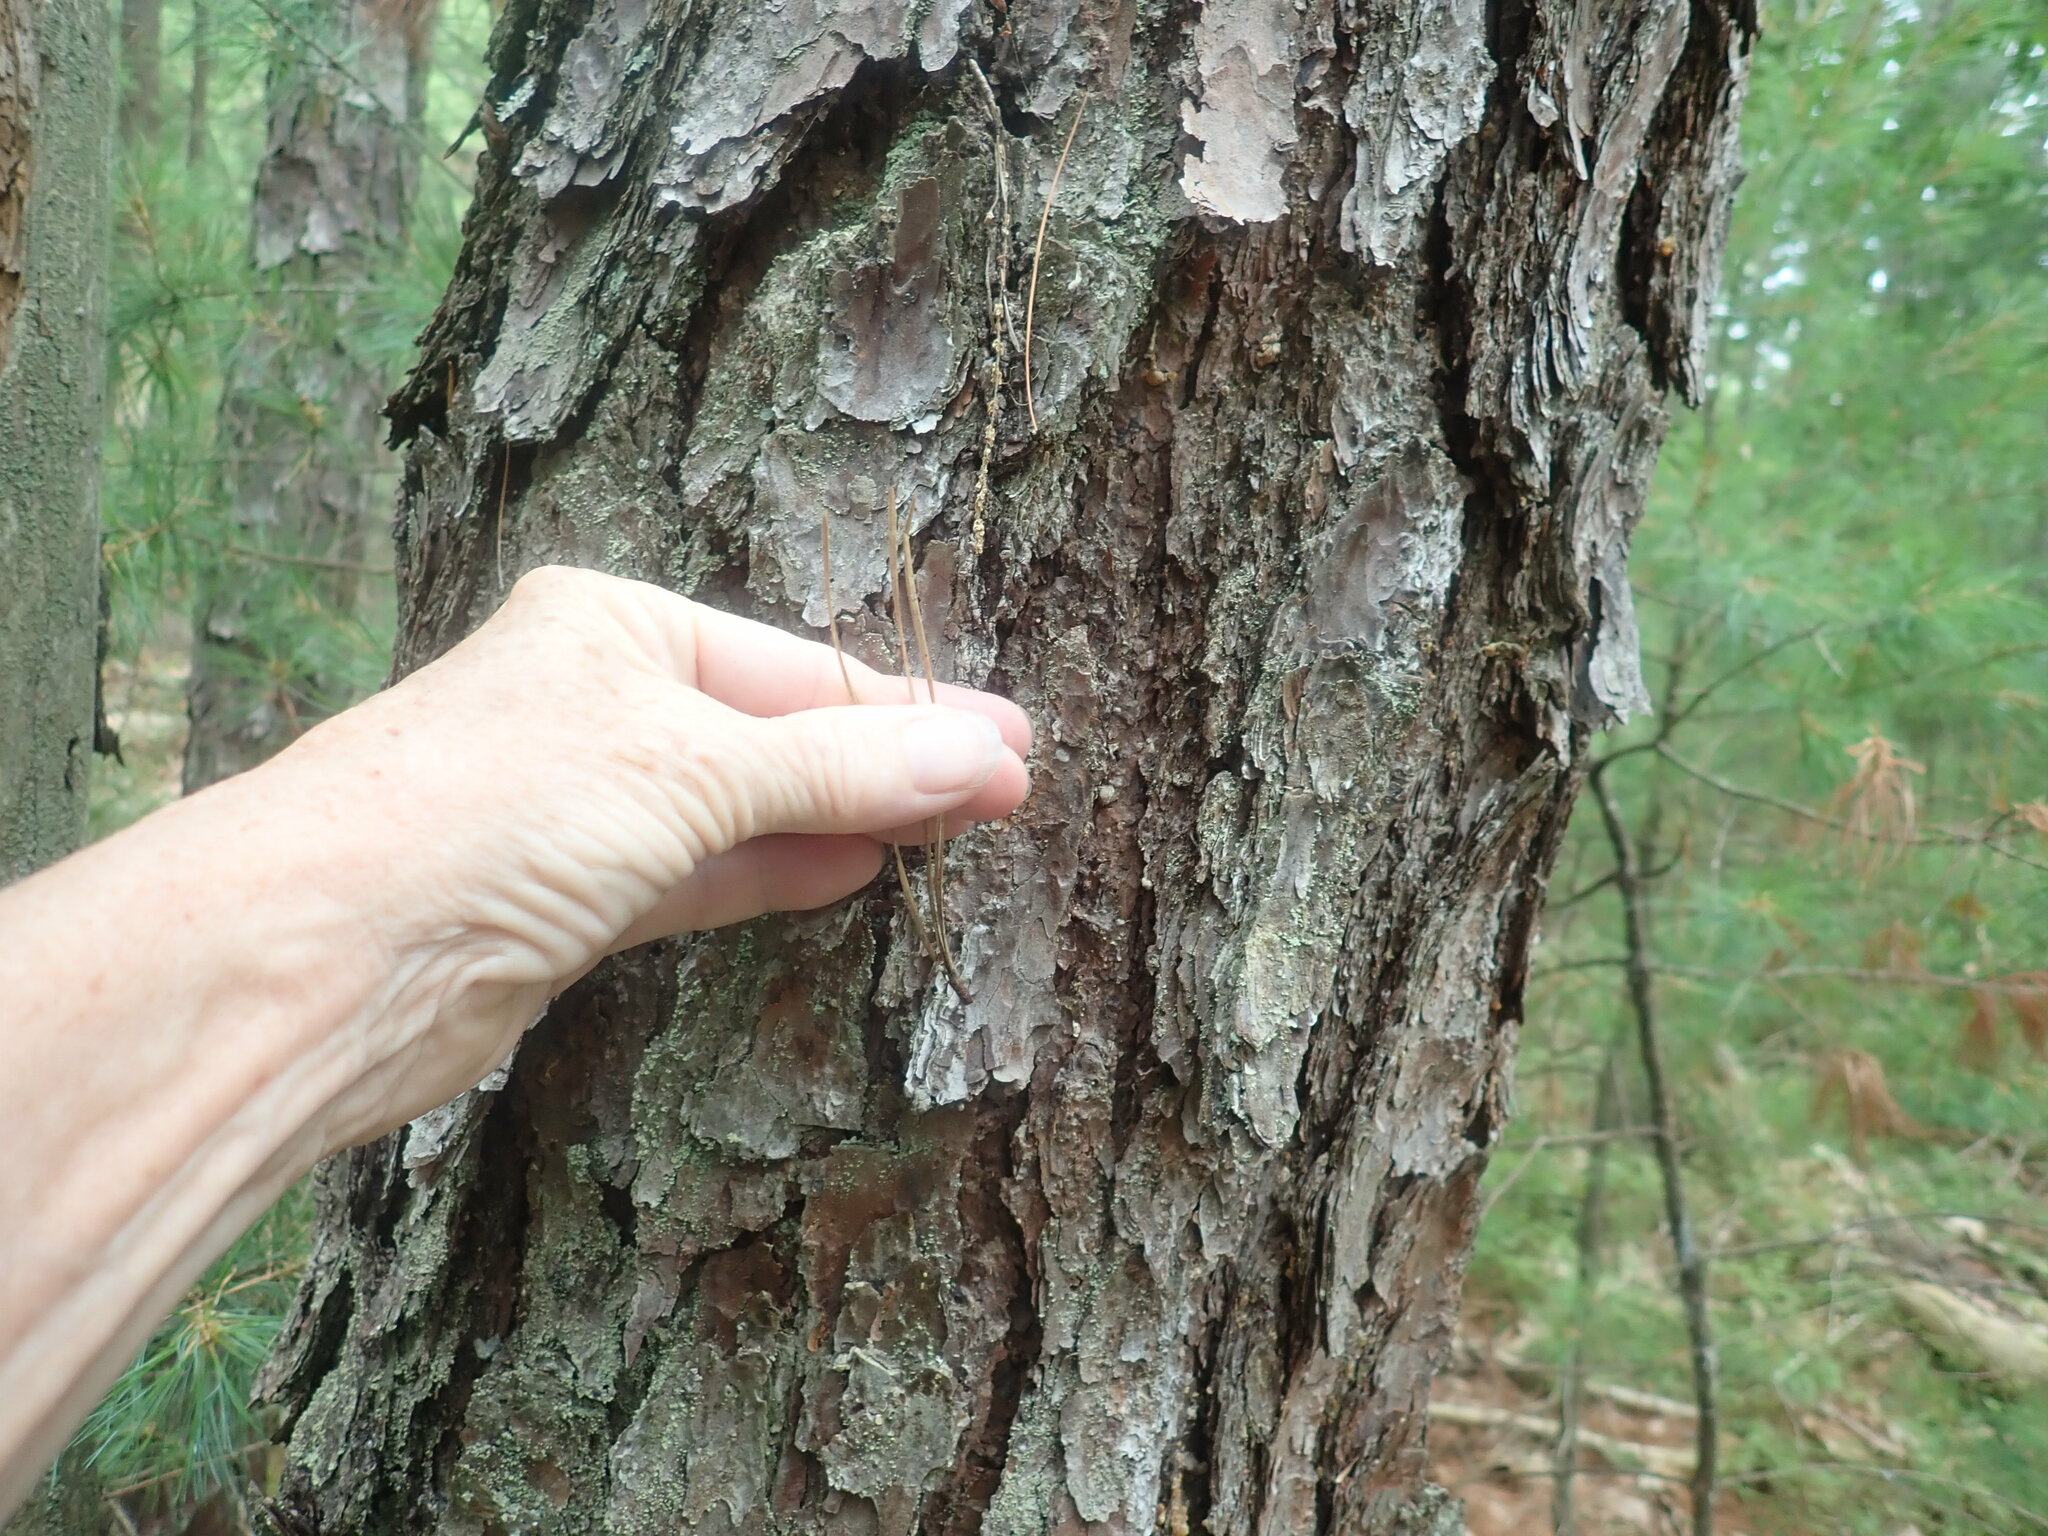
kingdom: Plantae
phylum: Tracheophyta
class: Pinopsida
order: Pinales
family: Pinaceae
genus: Pinus
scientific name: Pinus rigida
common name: Pitch pine
